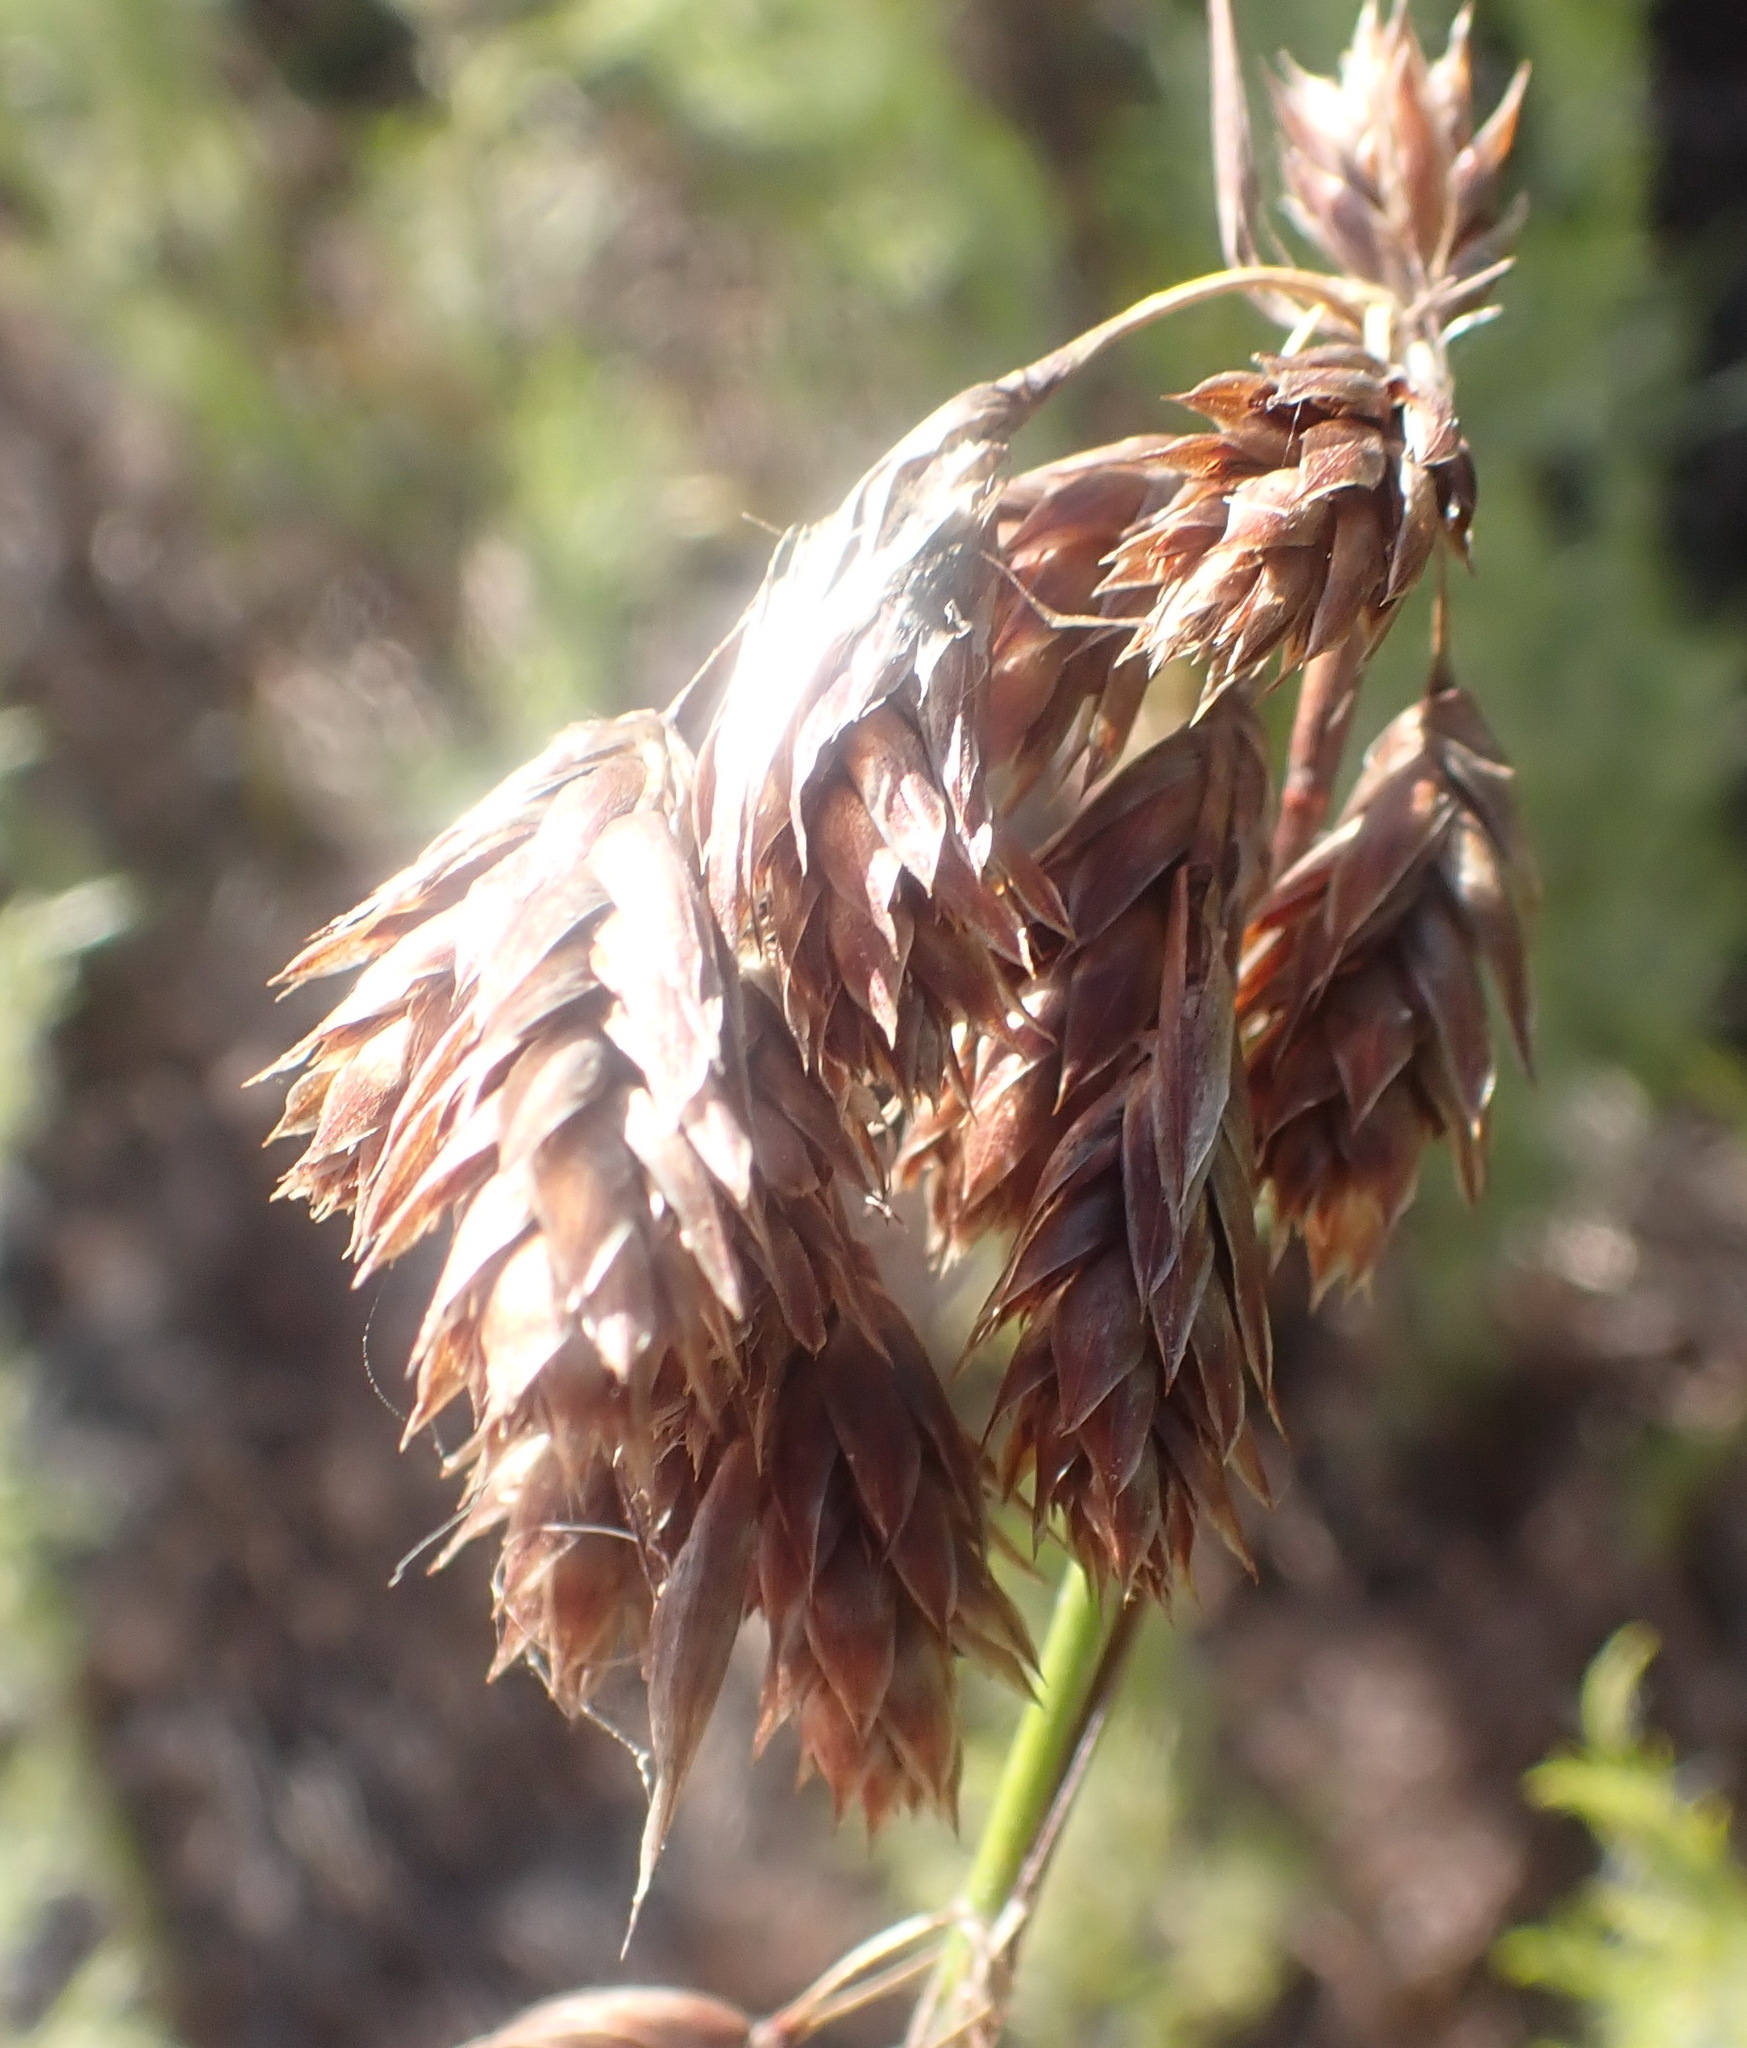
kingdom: Plantae
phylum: Tracheophyta
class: Liliopsida
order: Poales
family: Restionaceae
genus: Thamnochortus
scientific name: Thamnochortus insignis
